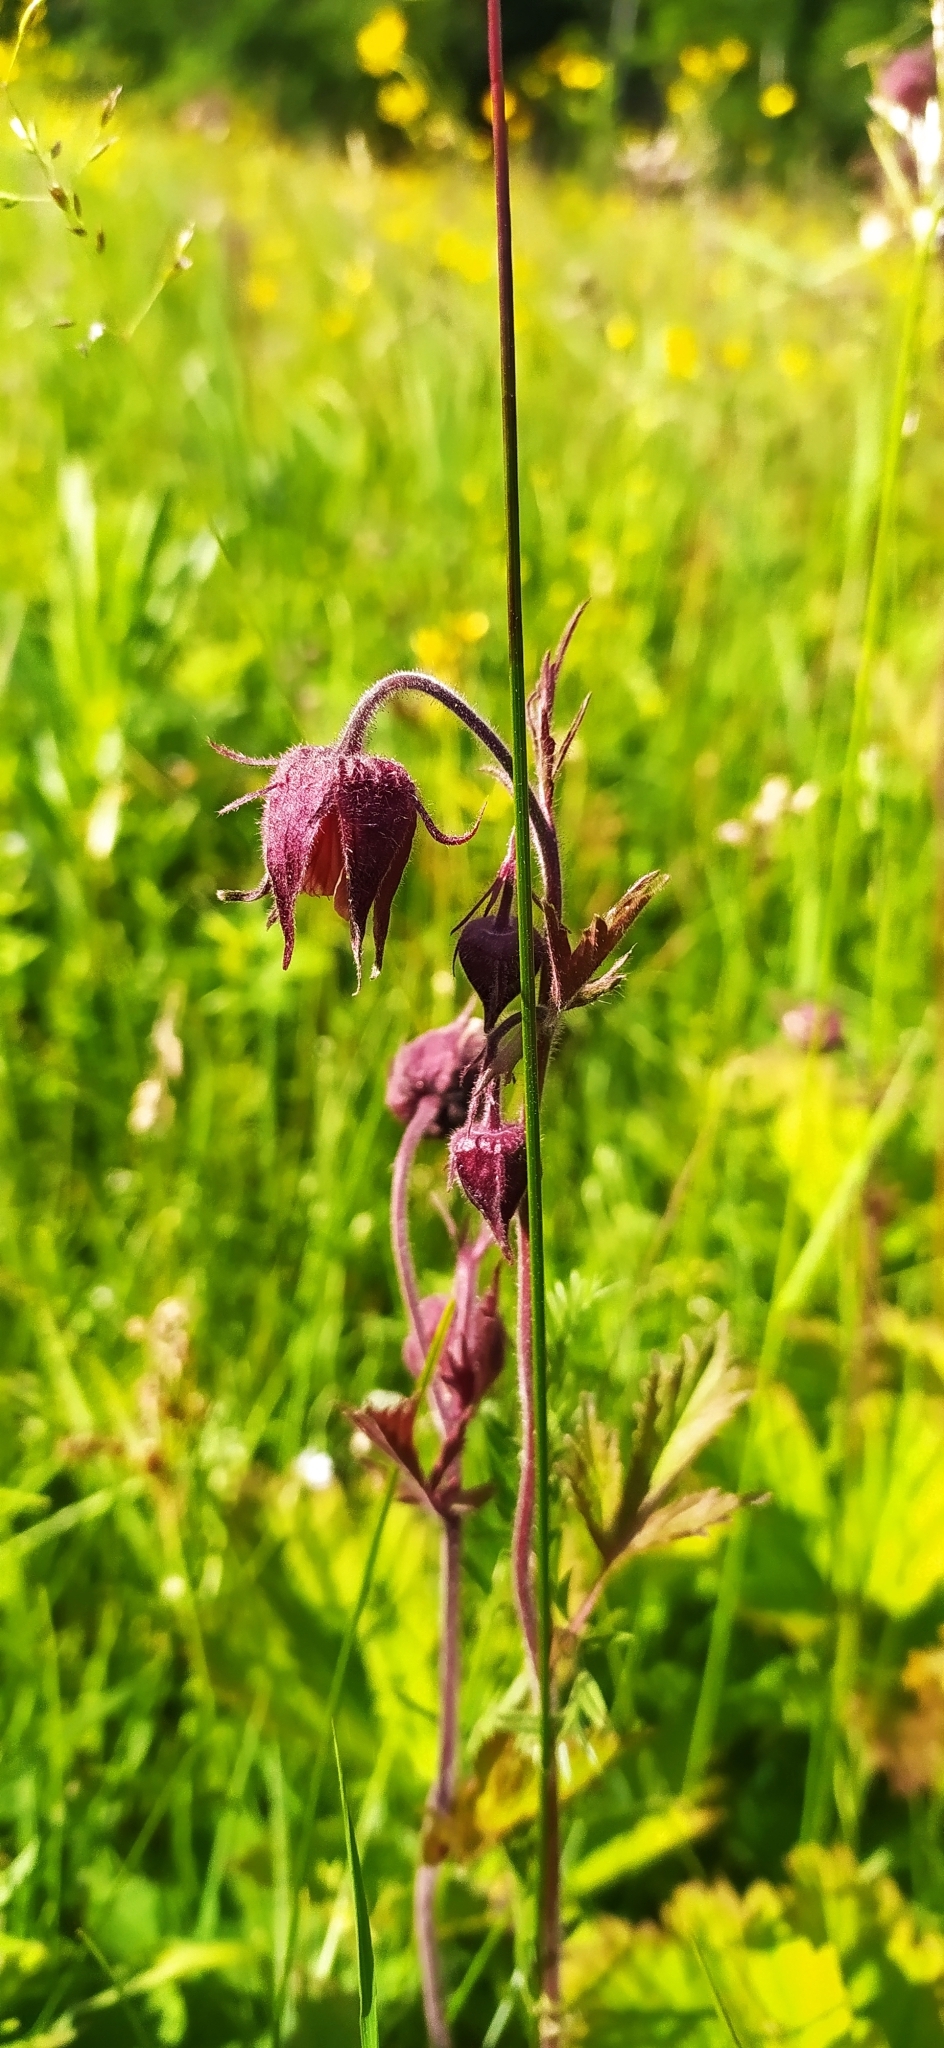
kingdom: Plantae
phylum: Tracheophyta
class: Magnoliopsida
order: Rosales
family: Rosaceae
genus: Geum
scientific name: Geum rivale
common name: Water avens
